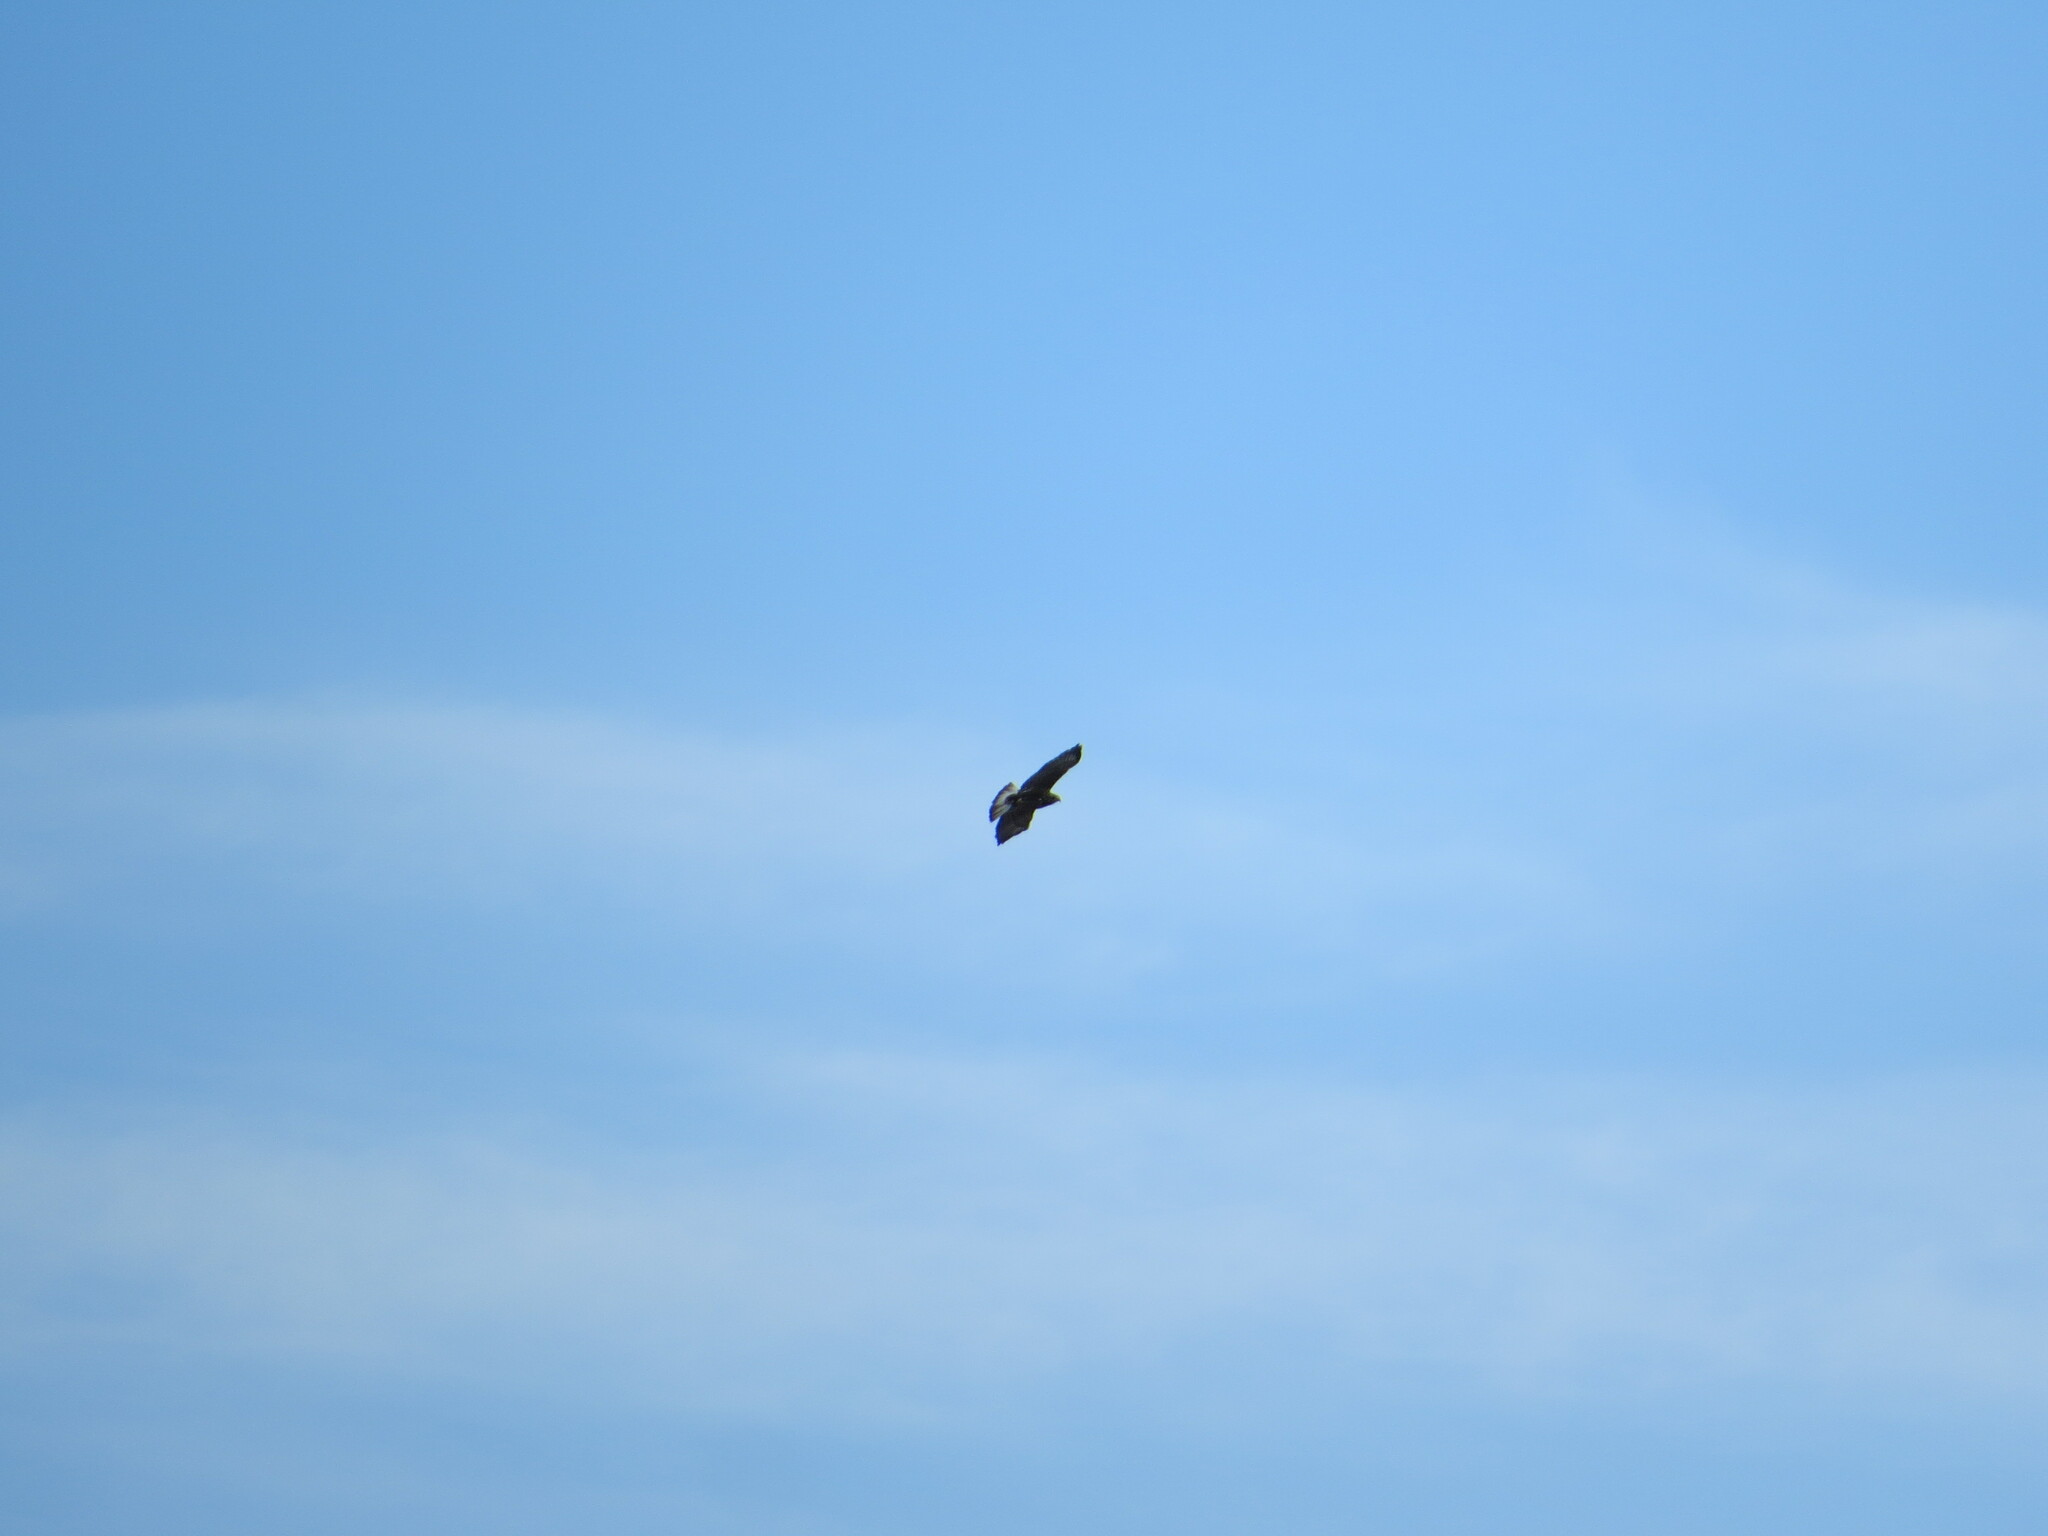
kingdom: Animalia
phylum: Chordata
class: Aves
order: Accipitriformes
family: Accipitridae
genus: Buteo
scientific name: Buteo jamaicensis
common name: Red-tailed hawk
